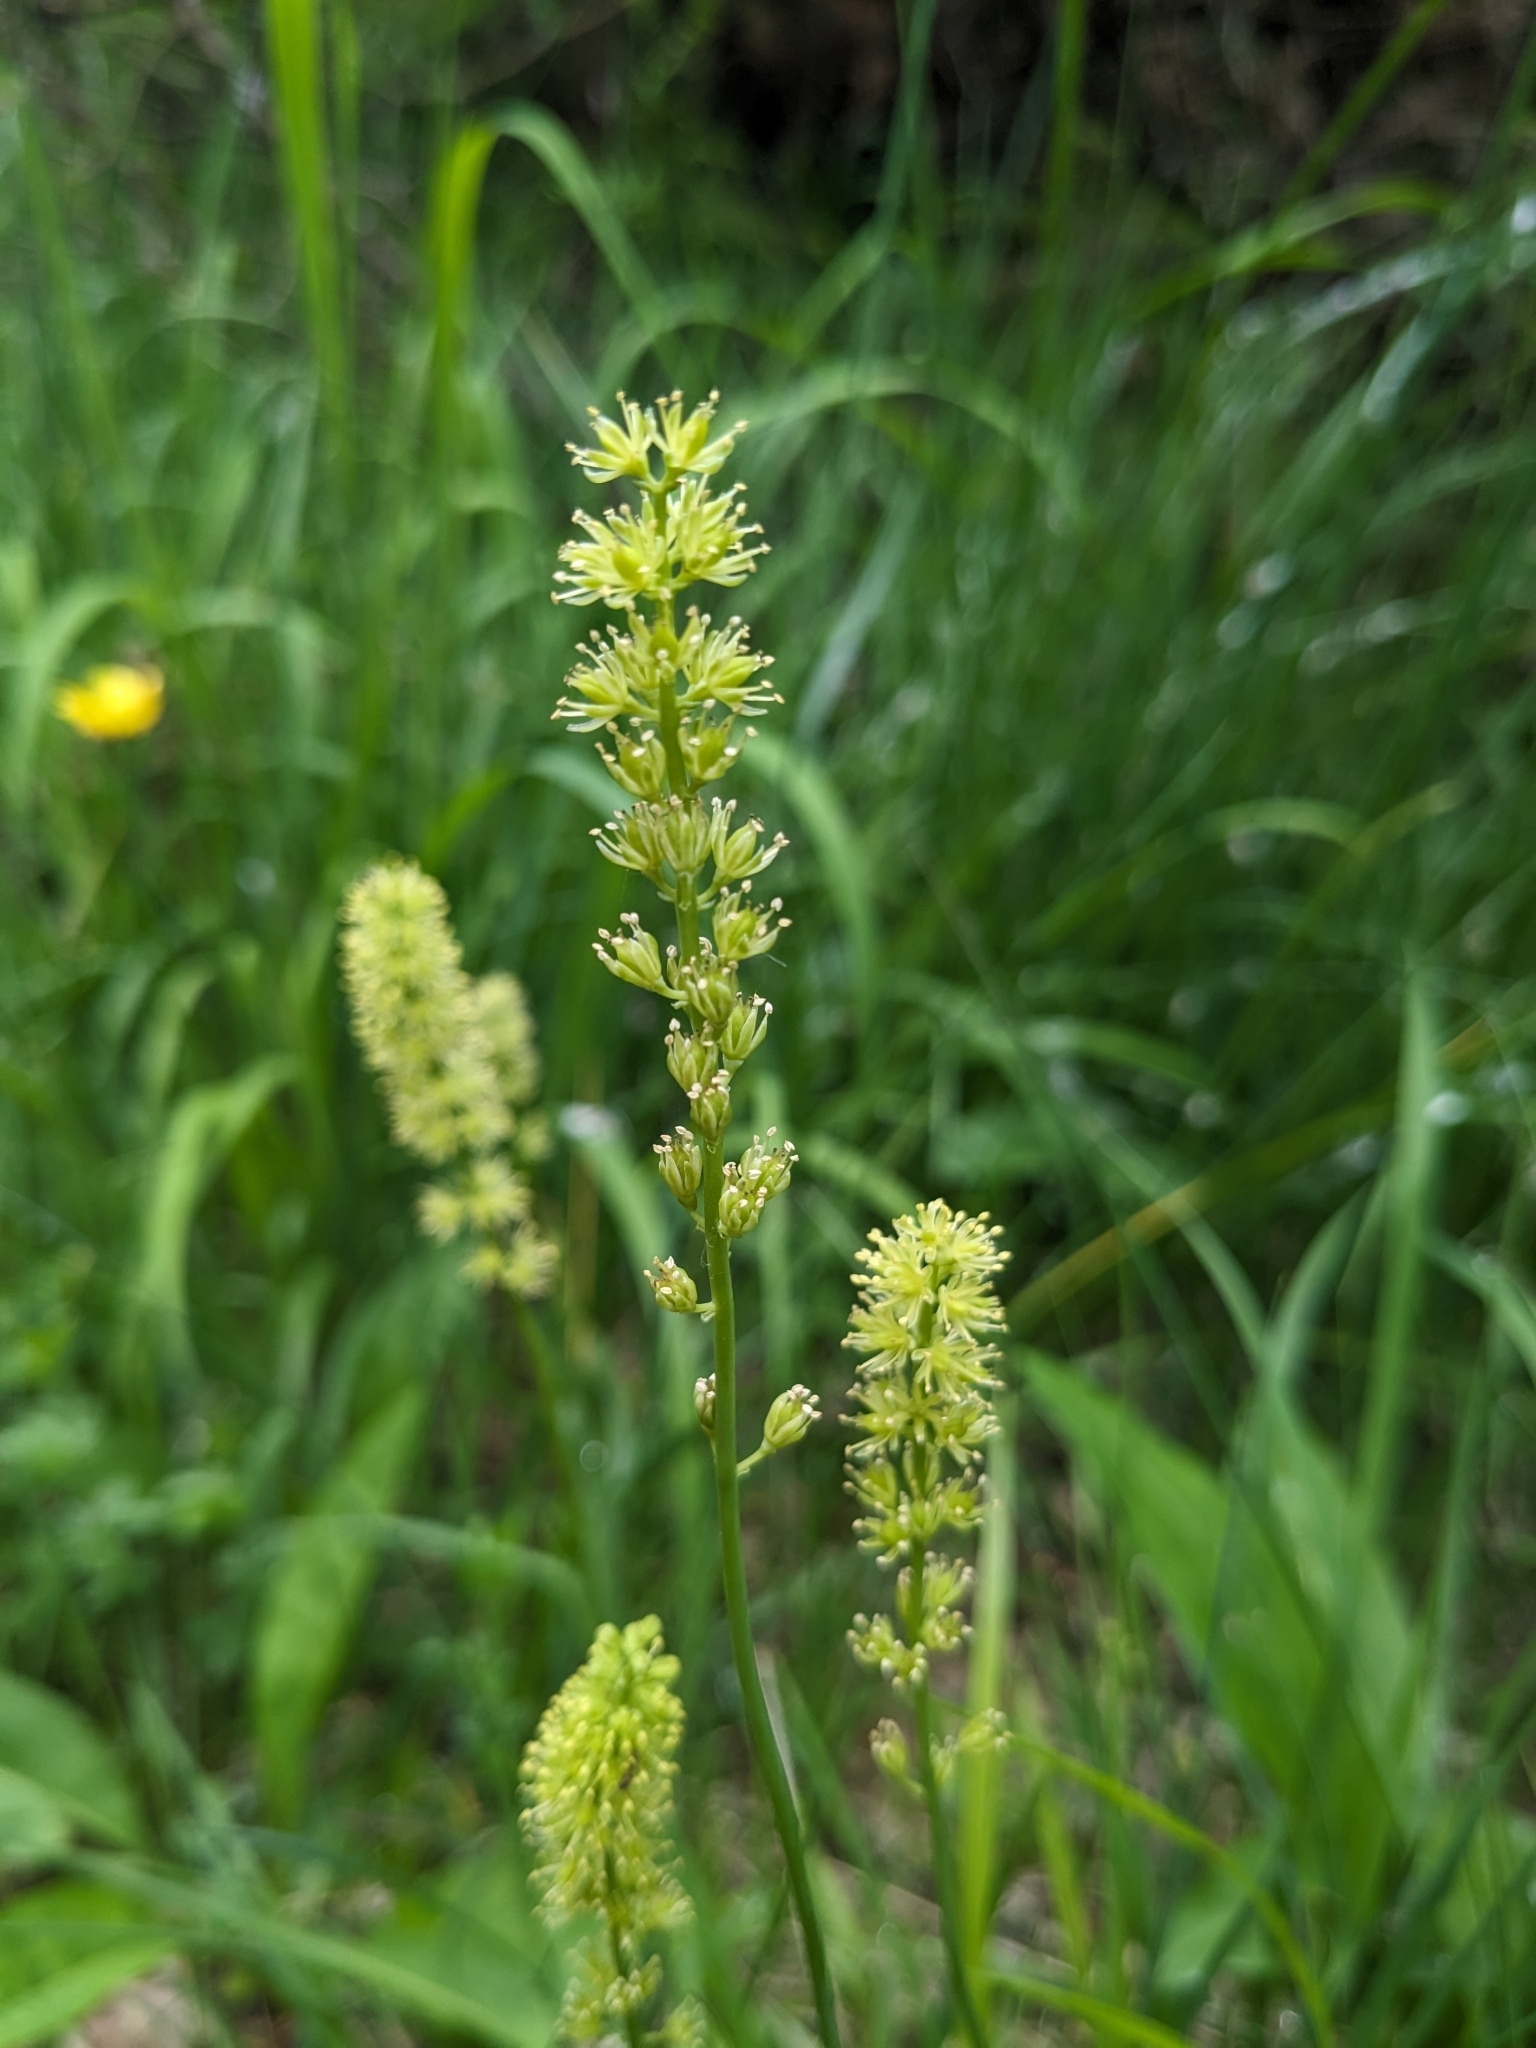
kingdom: Plantae
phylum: Tracheophyta
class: Liliopsida
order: Alismatales
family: Tofieldiaceae
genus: Tofieldia
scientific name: Tofieldia calyculata
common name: German-asphodel
